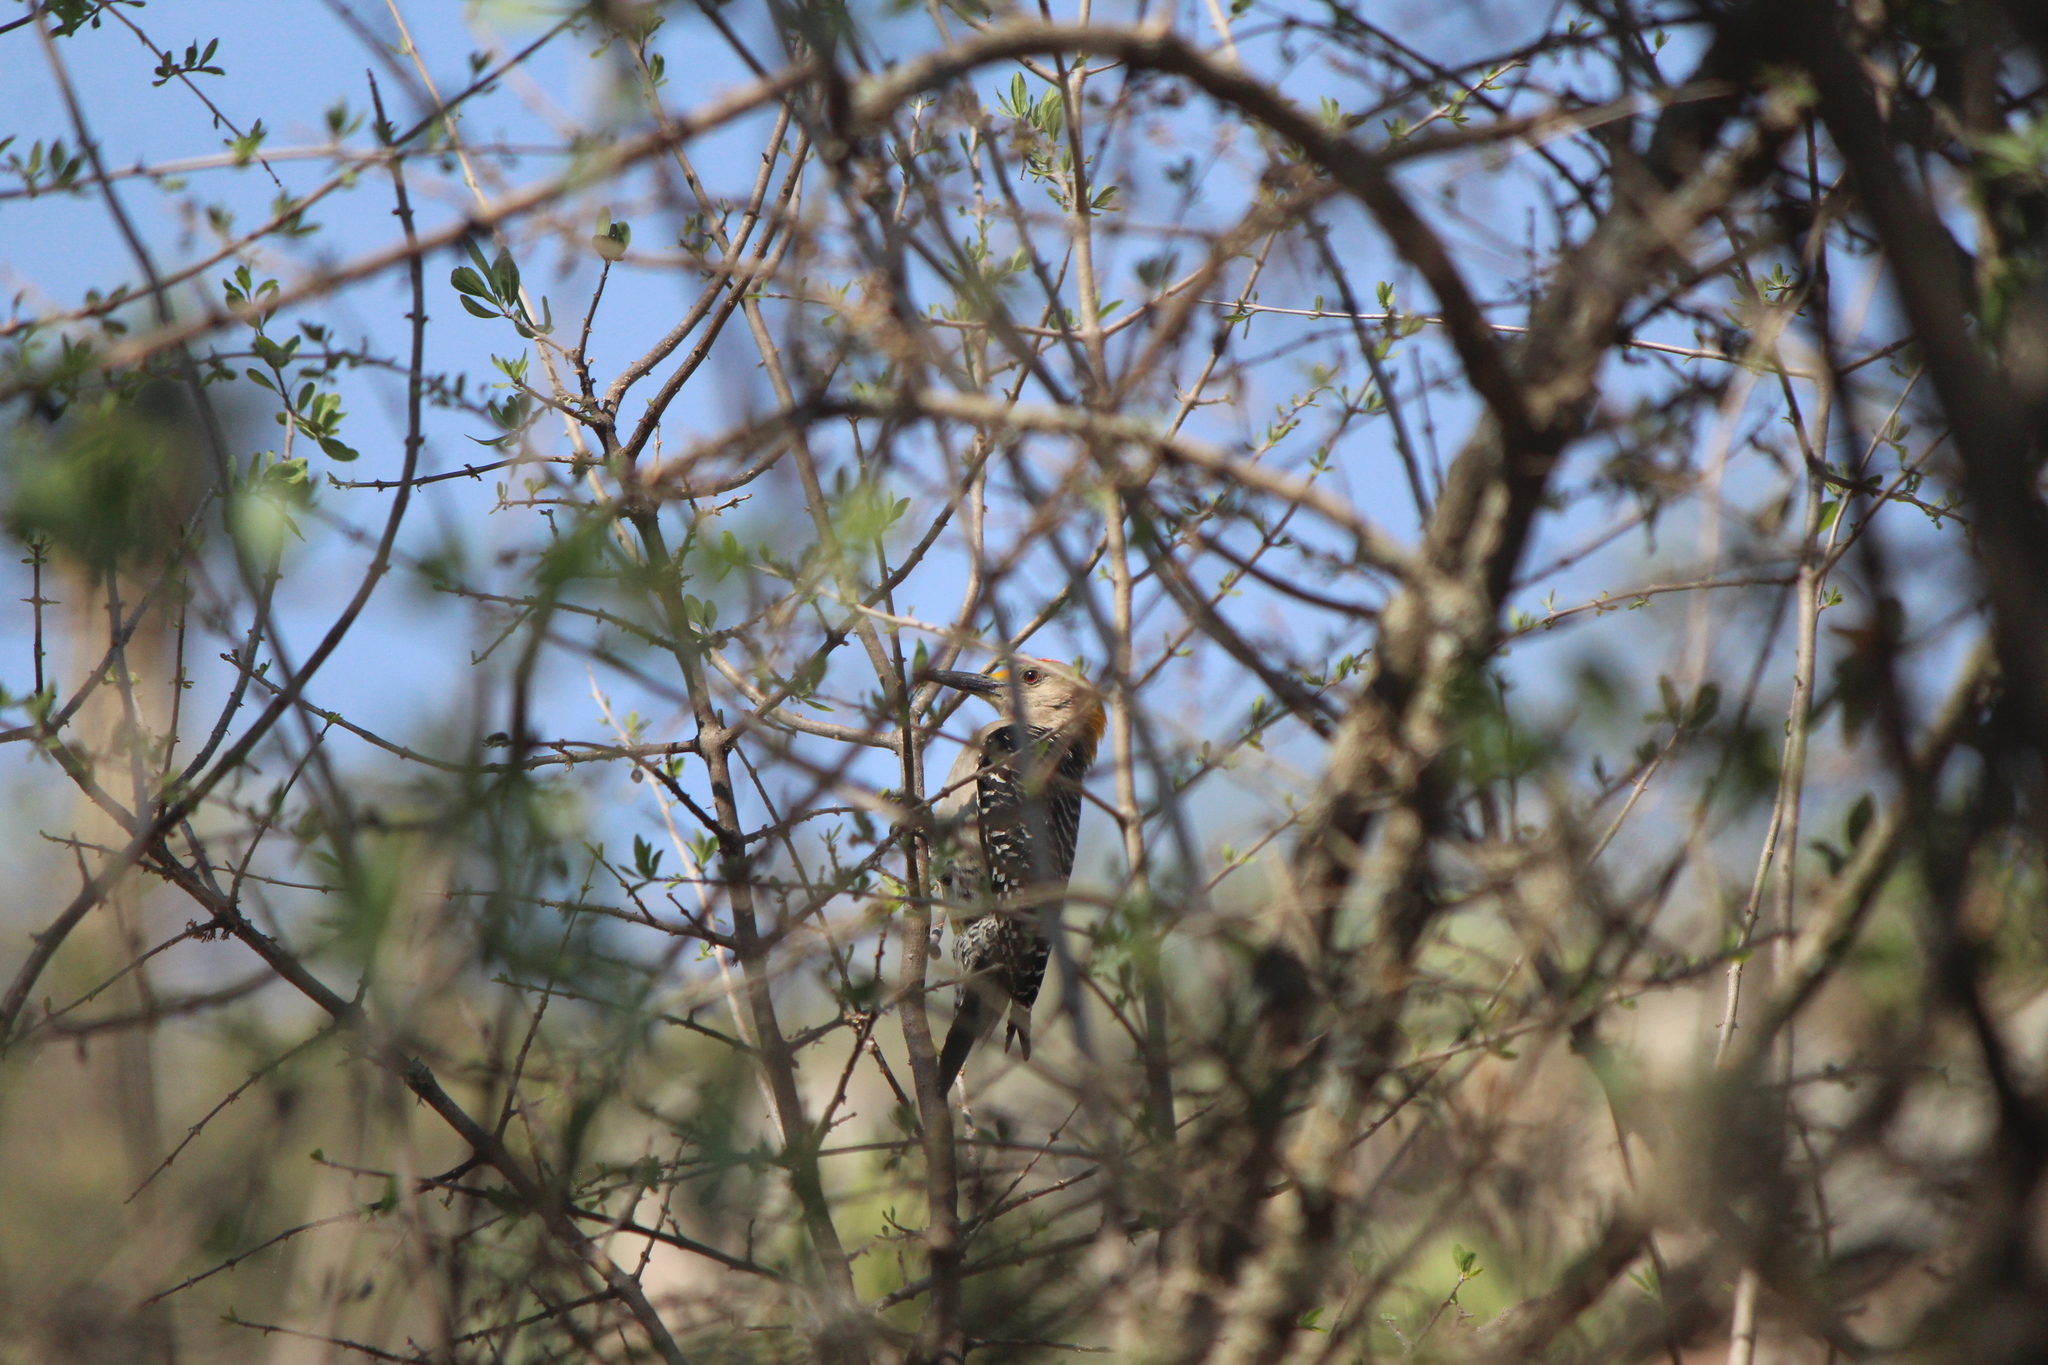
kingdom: Animalia
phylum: Chordata
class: Aves
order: Piciformes
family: Picidae
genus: Melanerpes
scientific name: Melanerpes aurifrons
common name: Golden-fronted woodpecker
